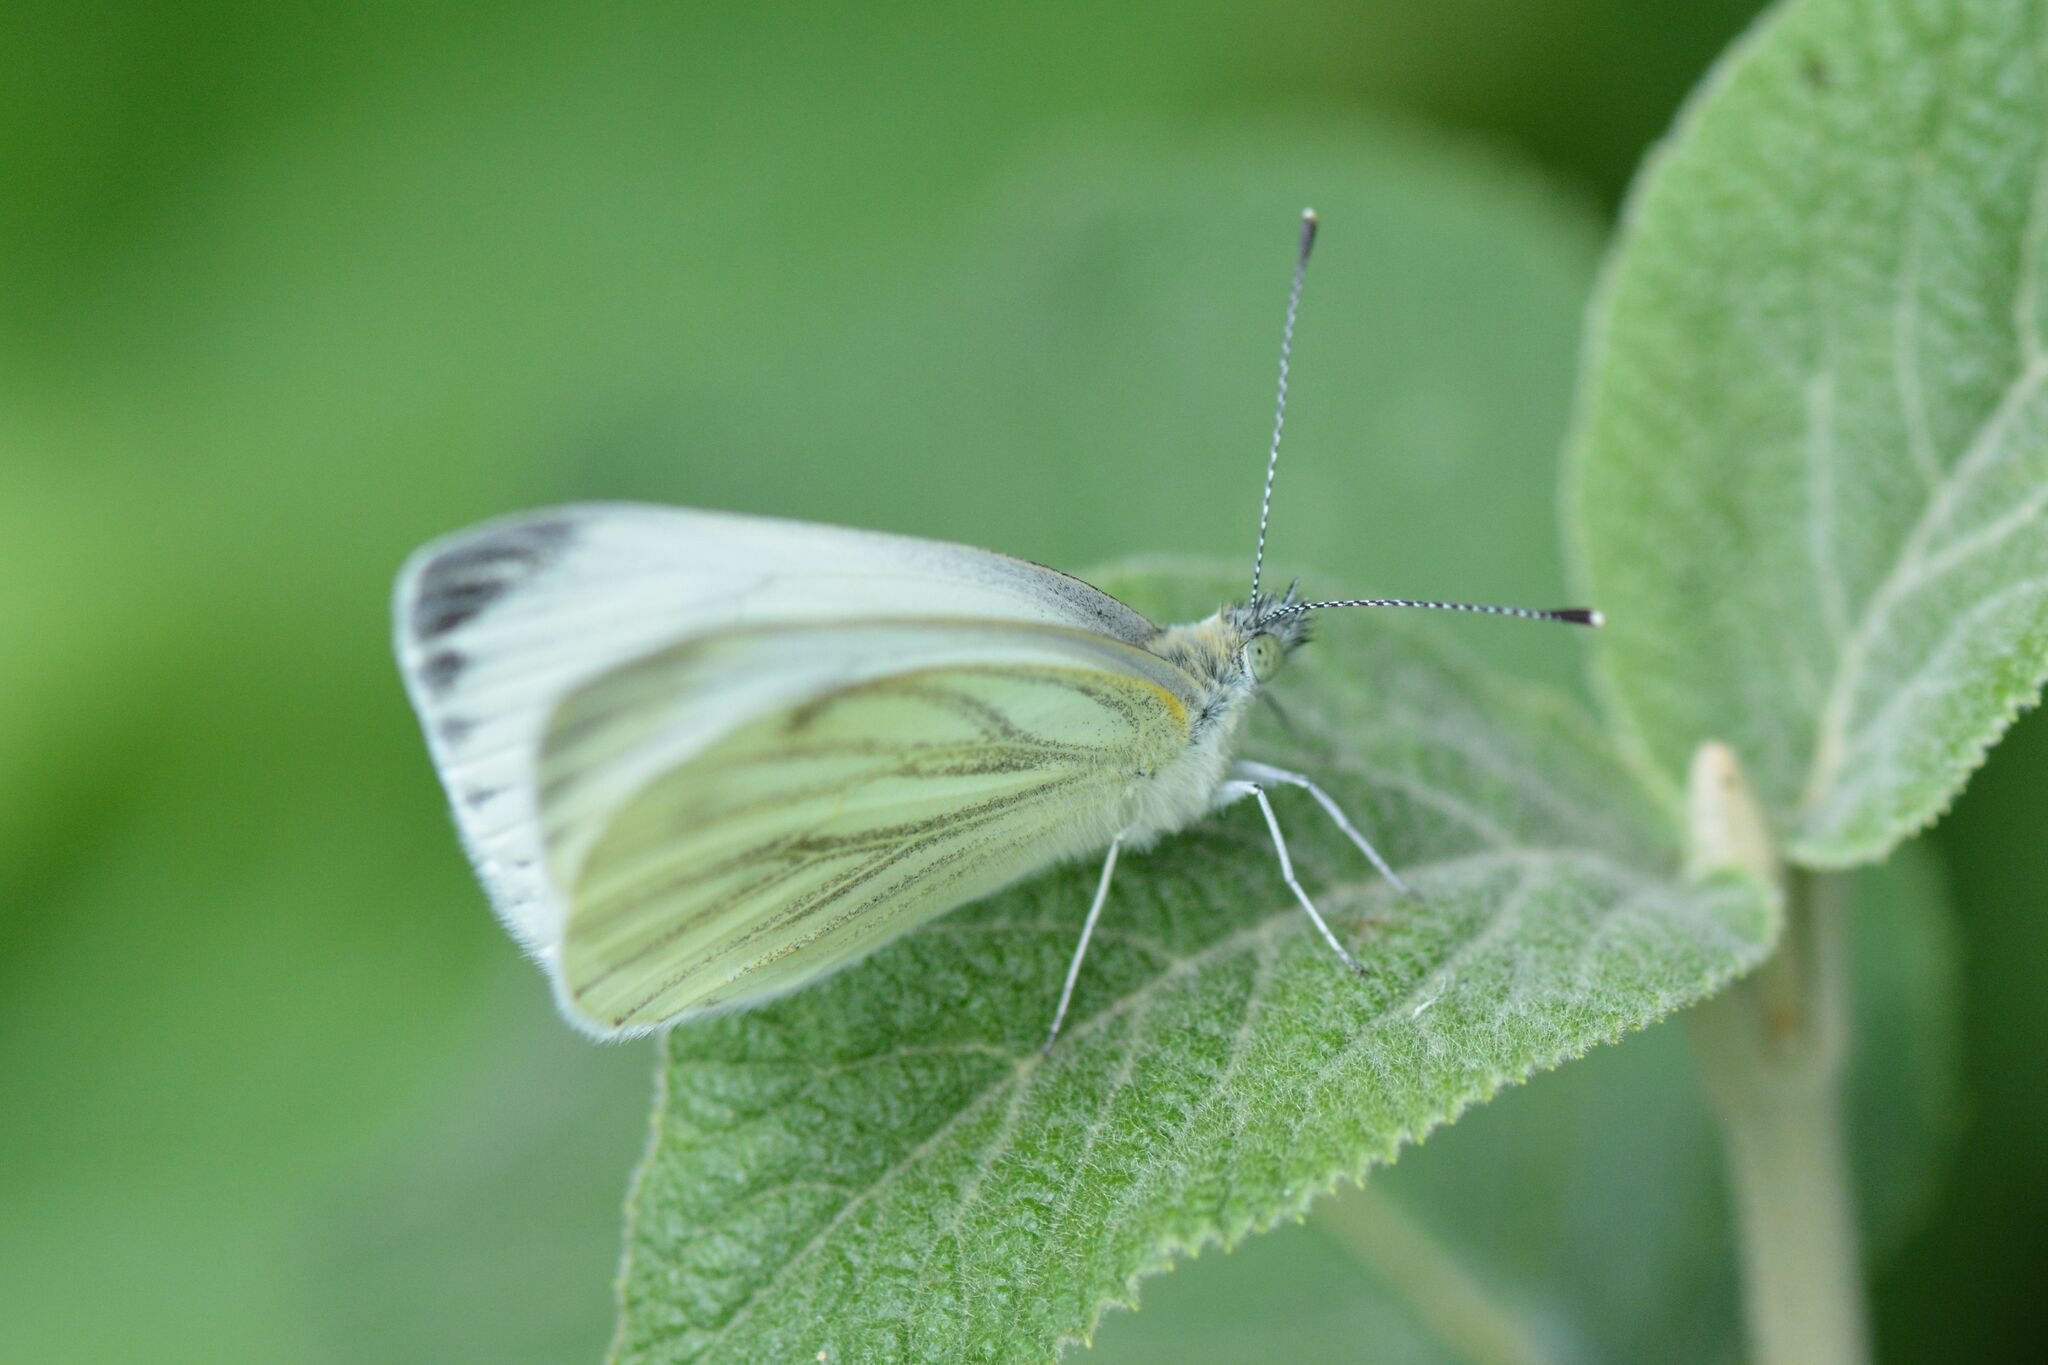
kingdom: Animalia
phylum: Arthropoda
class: Insecta
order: Lepidoptera
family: Pieridae
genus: Pieris
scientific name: Pieris napi
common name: Green-veined white
